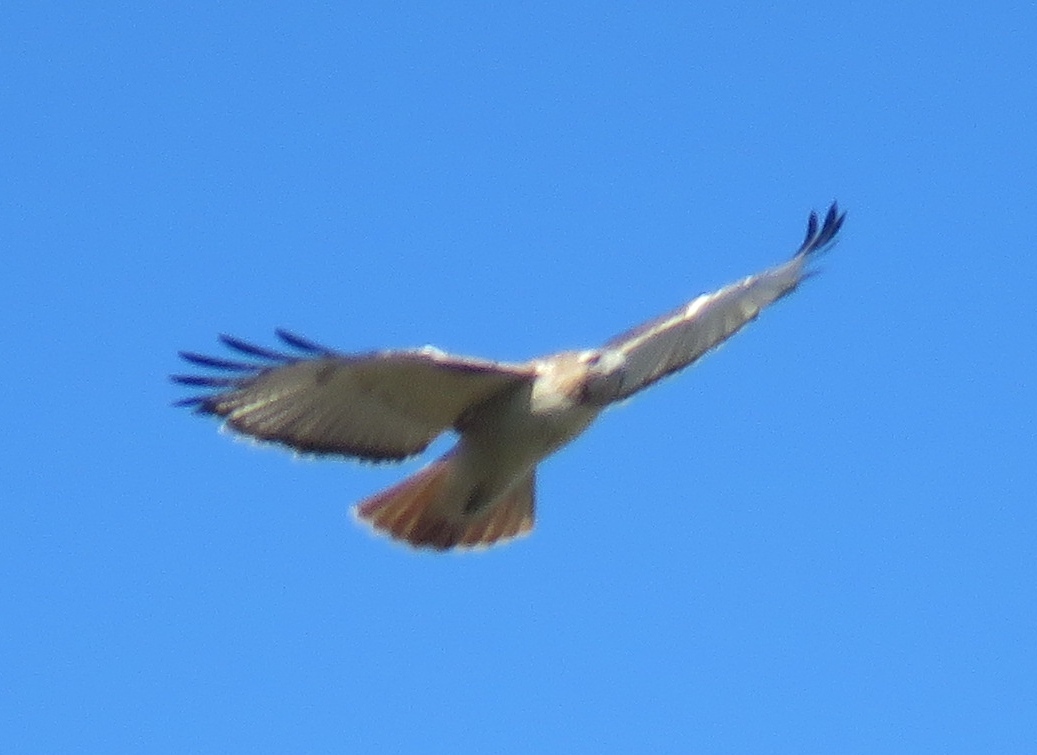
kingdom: Animalia
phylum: Chordata
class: Aves
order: Accipitriformes
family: Accipitridae
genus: Buteo
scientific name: Buteo jamaicensis
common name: Red-tailed hawk
